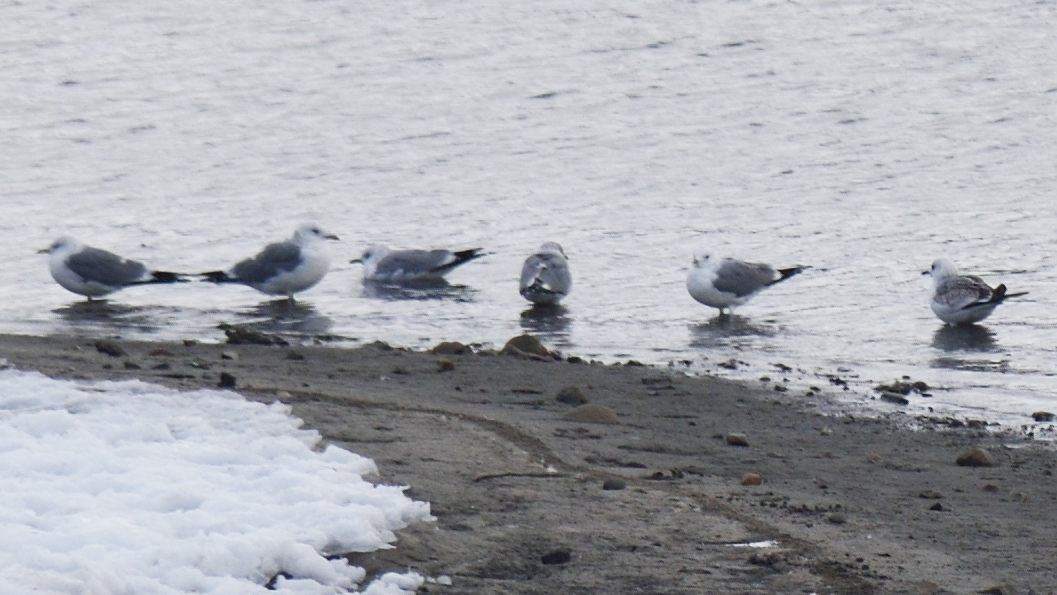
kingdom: Animalia
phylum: Chordata
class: Aves
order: Charadriiformes
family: Laridae
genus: Larus
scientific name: Larus canus
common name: Mew gull
